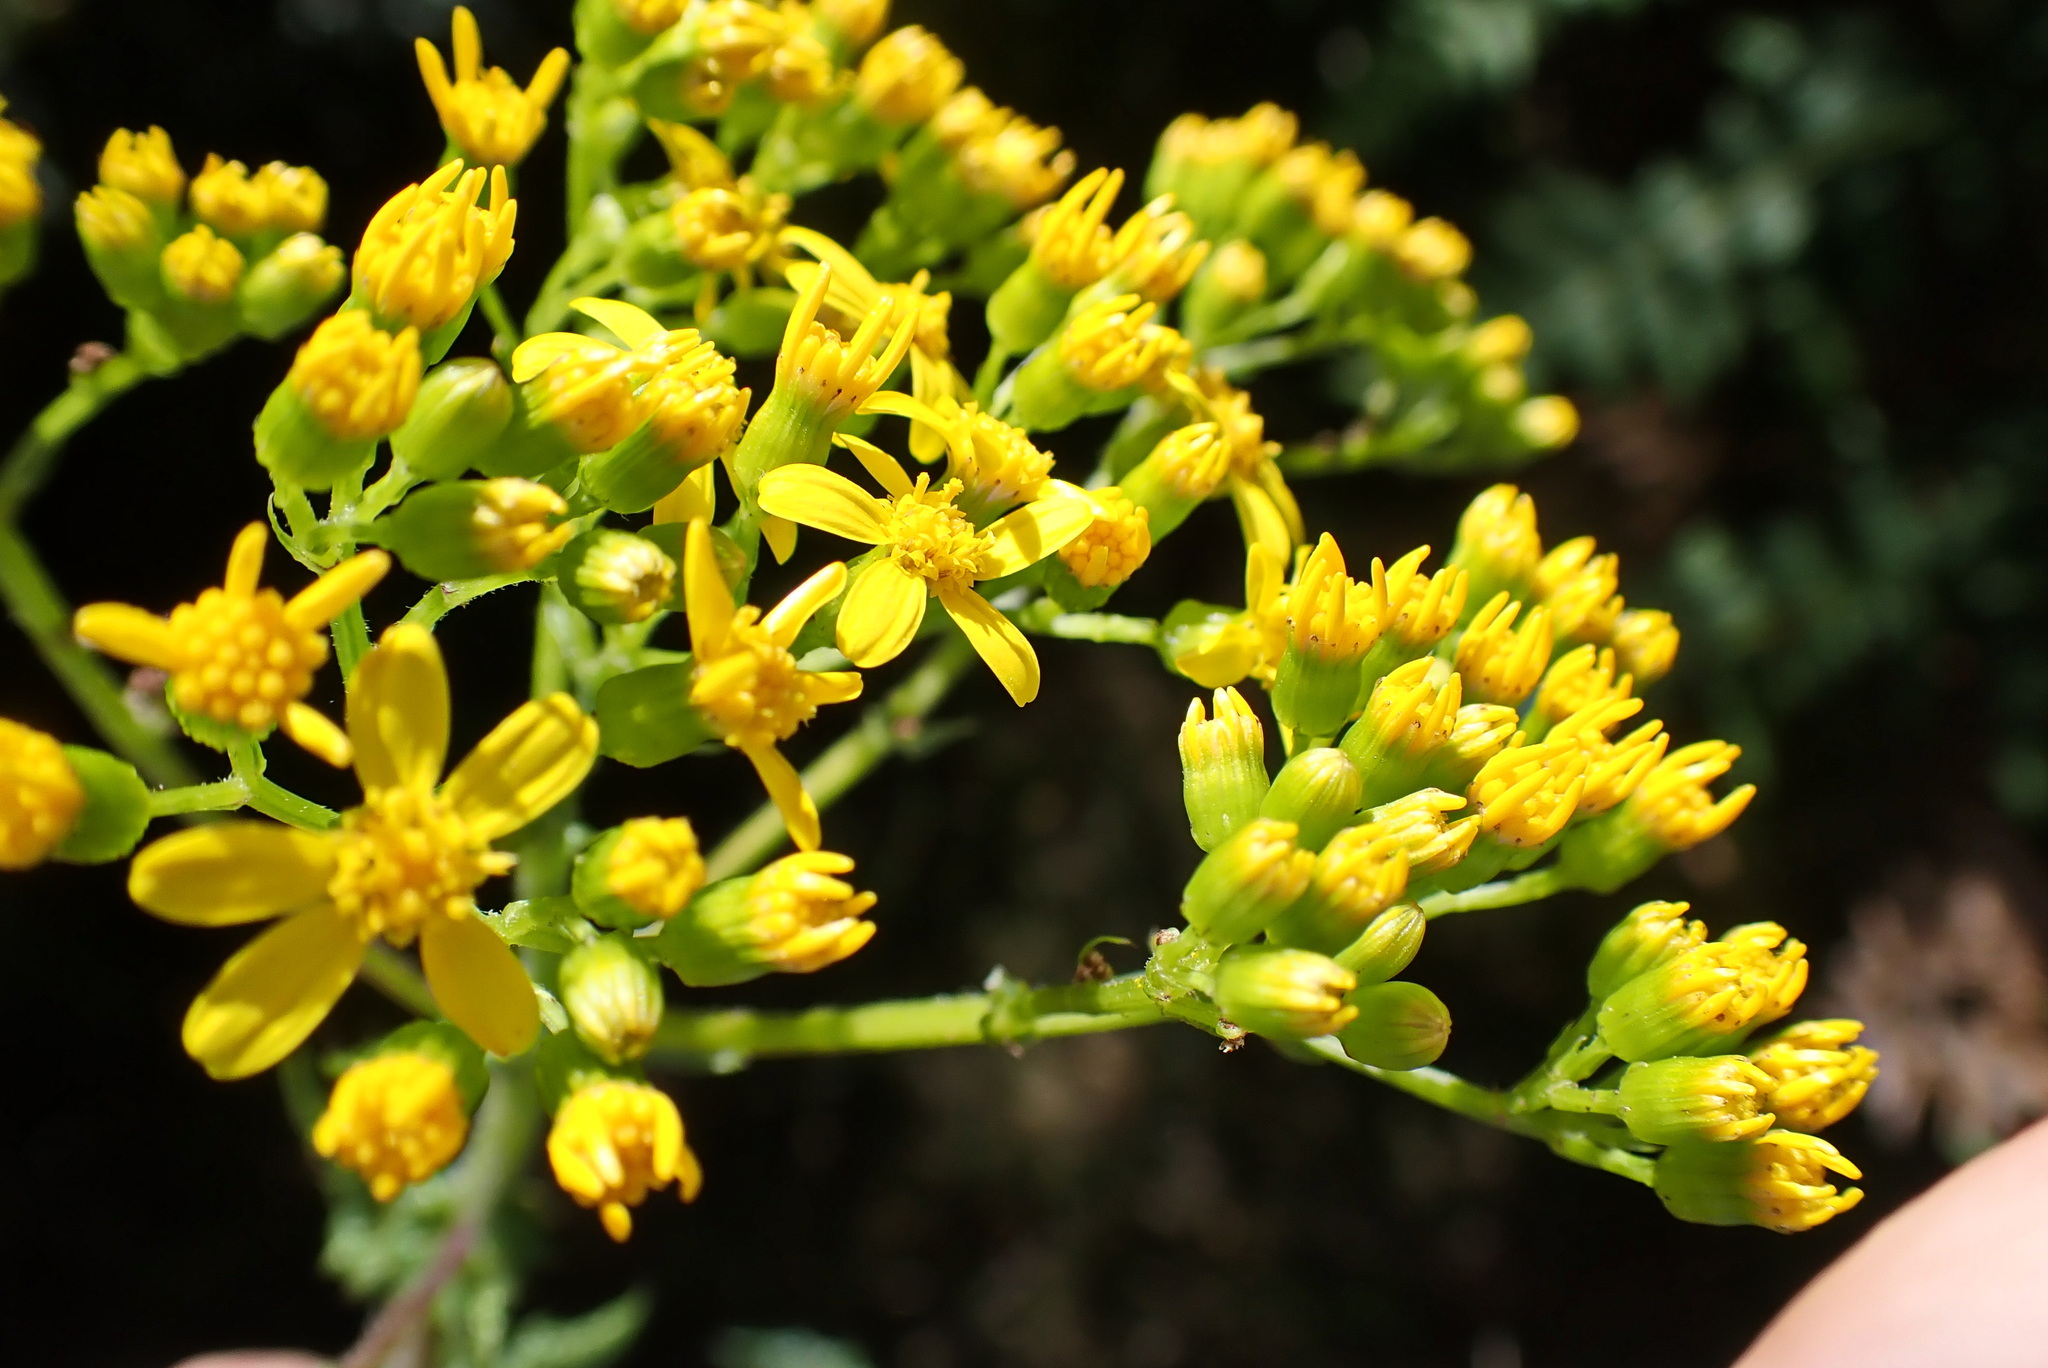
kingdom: Plantae
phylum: Tracheophyta
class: Magnoliopsida
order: Asterales
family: Asteraceae
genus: Senecio
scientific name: Senecio rigidus
